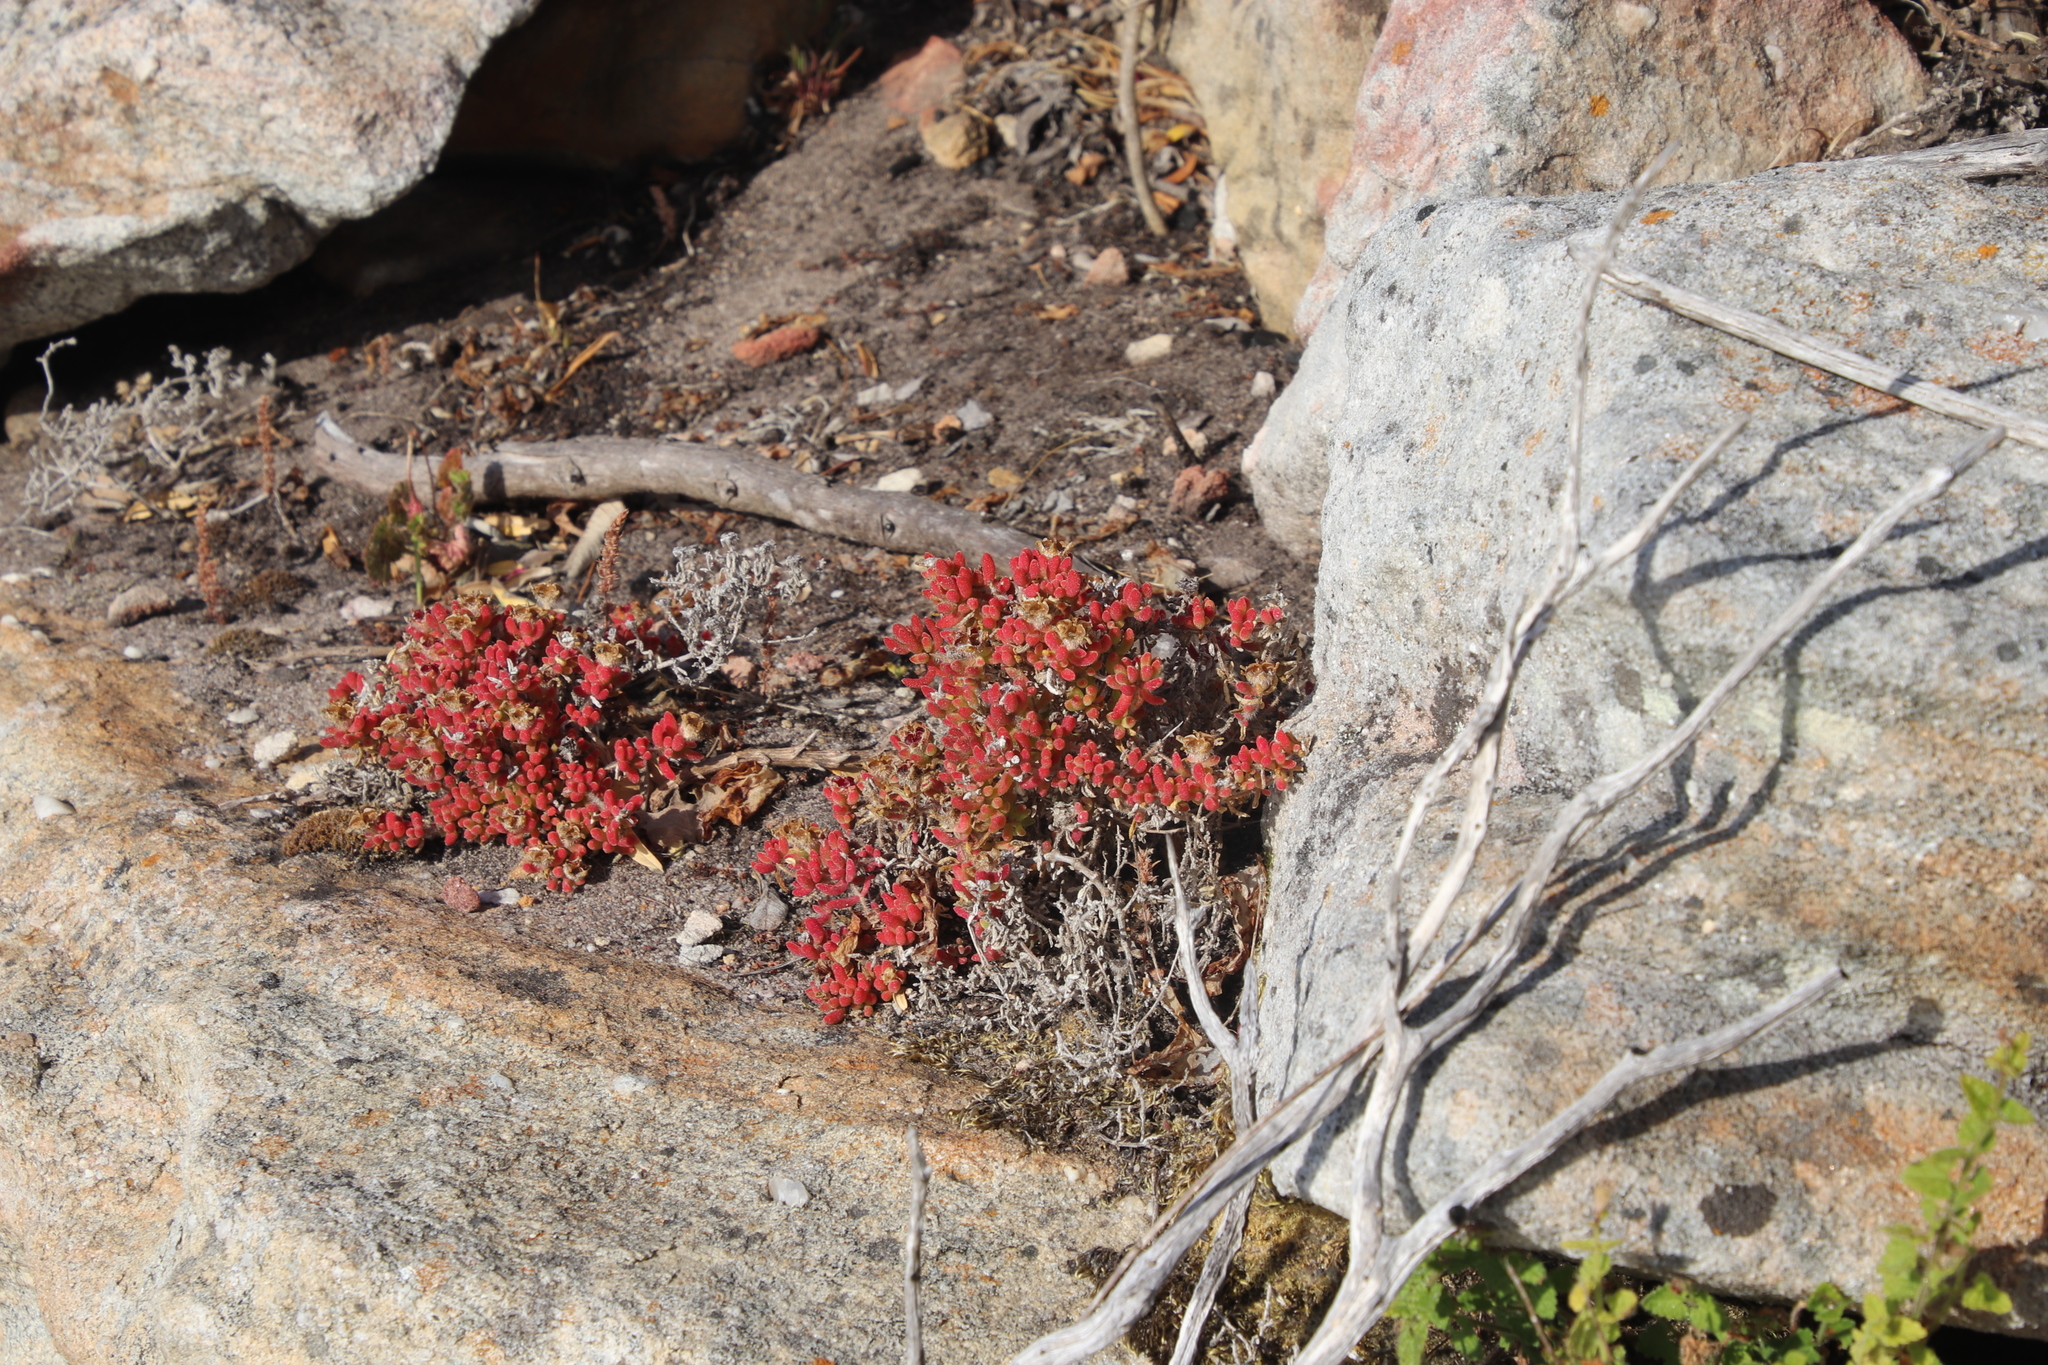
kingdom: Plantae
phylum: Tracheophyta
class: Magnoliopsida
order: Caryophyllales
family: Aizoaceae
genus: Drosanthemum
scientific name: Drosanthemum stokoei
